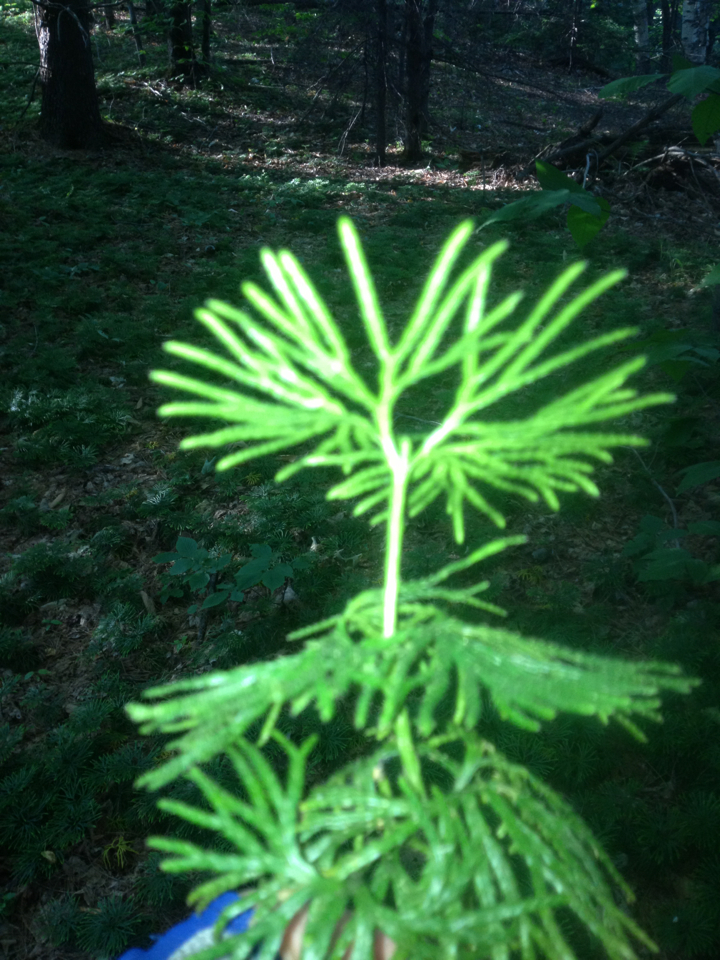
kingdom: Plantae
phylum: Tracheophyta
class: Lycopodiopsida
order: Lycopodiales
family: Lycopodiaceae
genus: Diphasiastrum
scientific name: Diphasiastrum digitatum
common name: Southern running-pine
